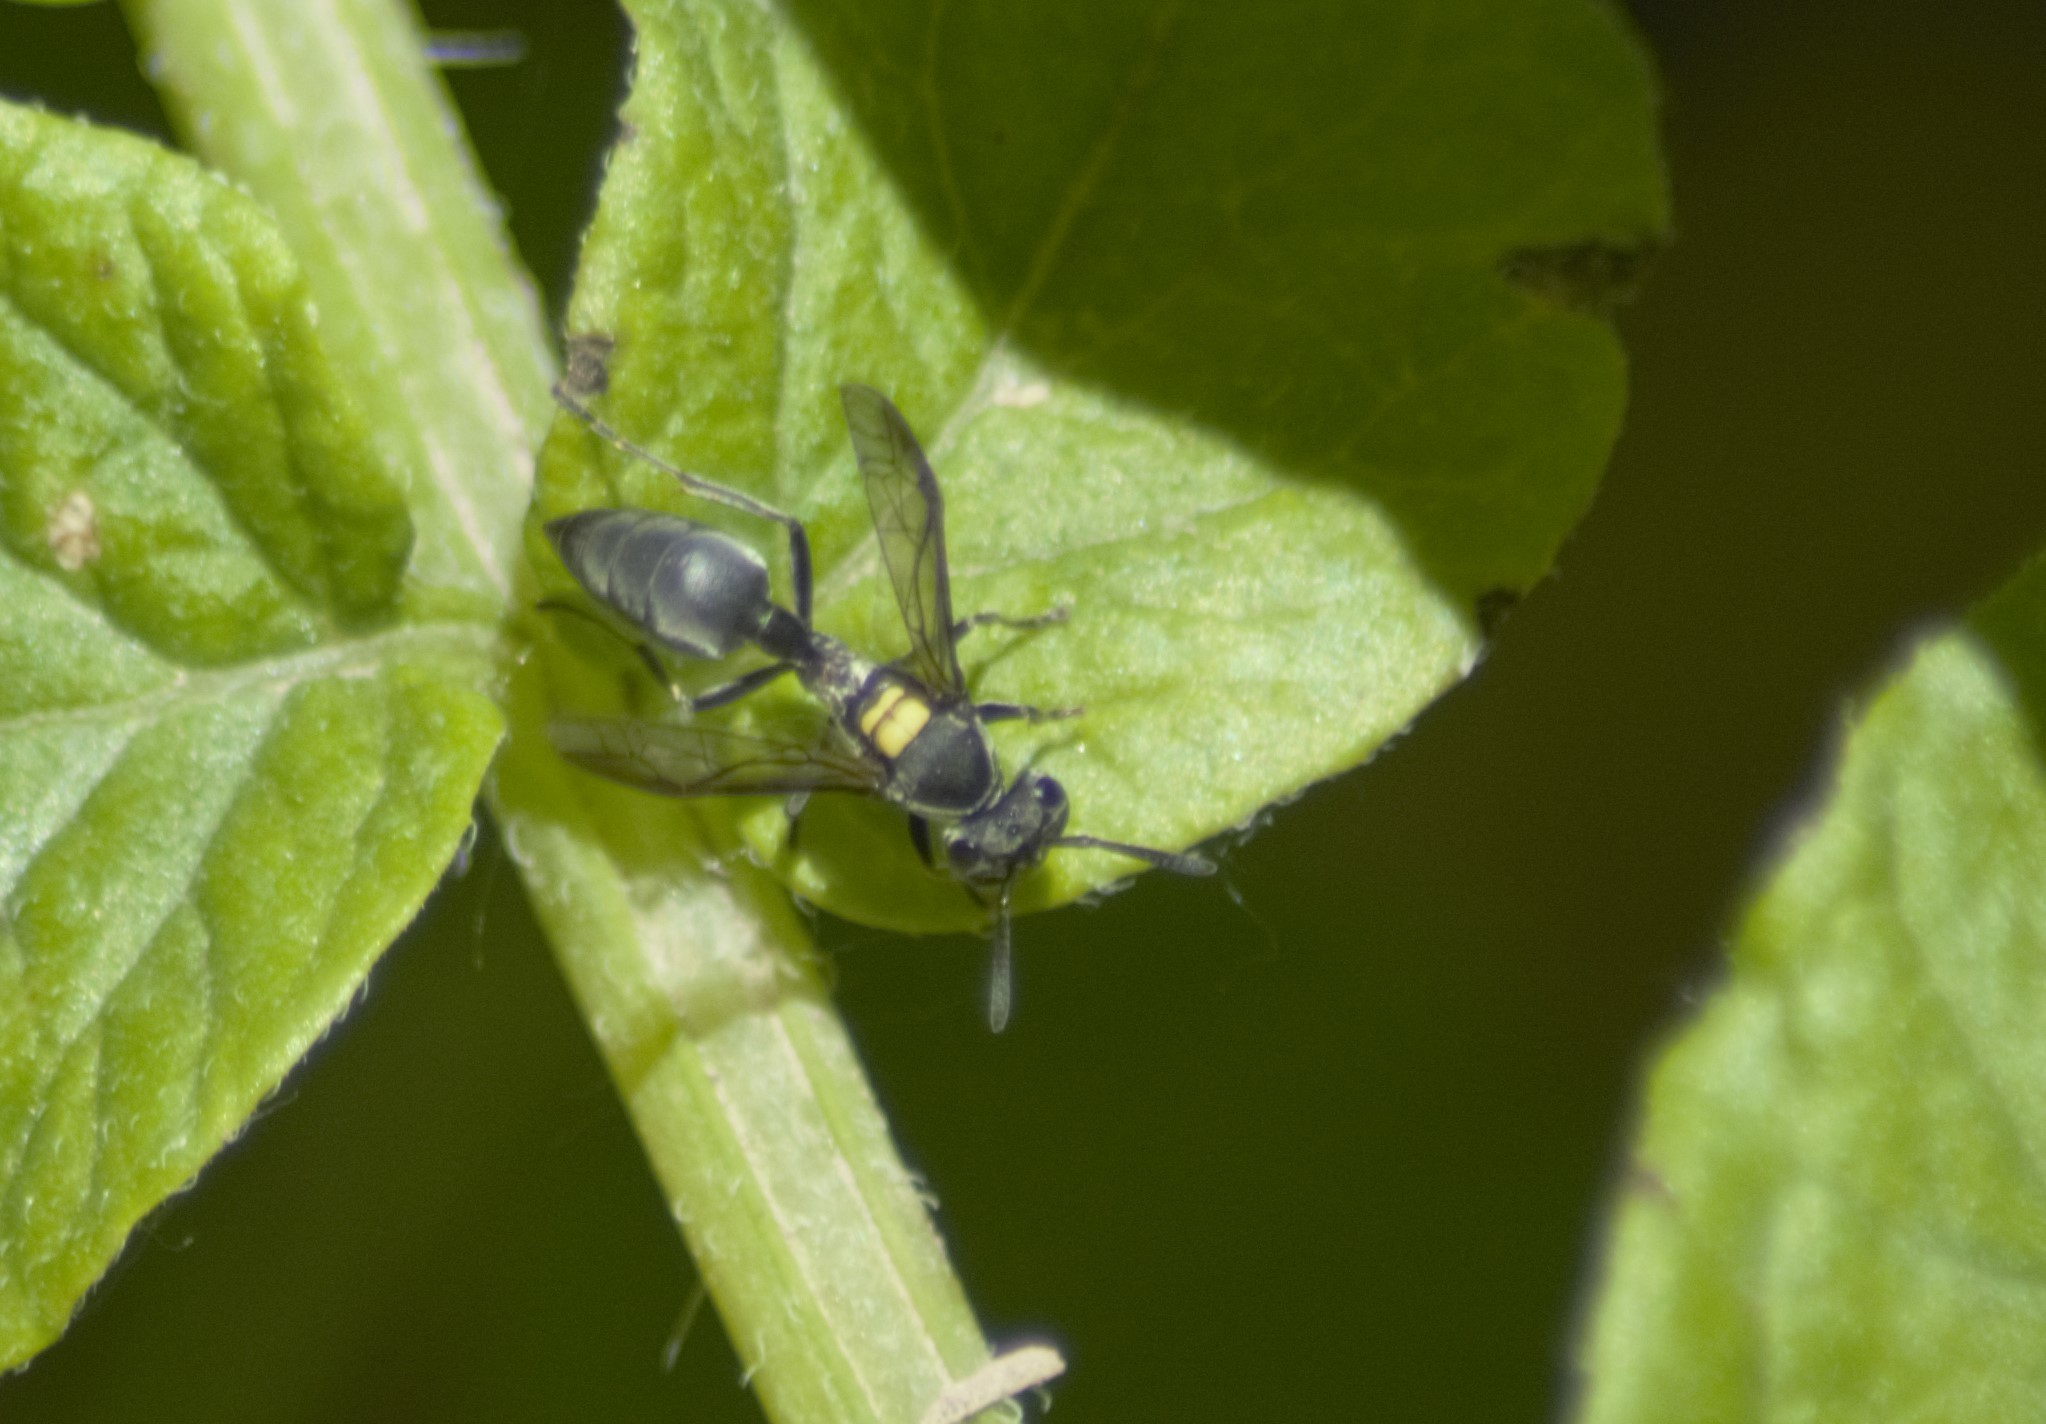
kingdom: Animalia
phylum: Arthropoda
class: Insecta
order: Hymenoptera
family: Eumenidae
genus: Polybia
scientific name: Polybia scutellaris
